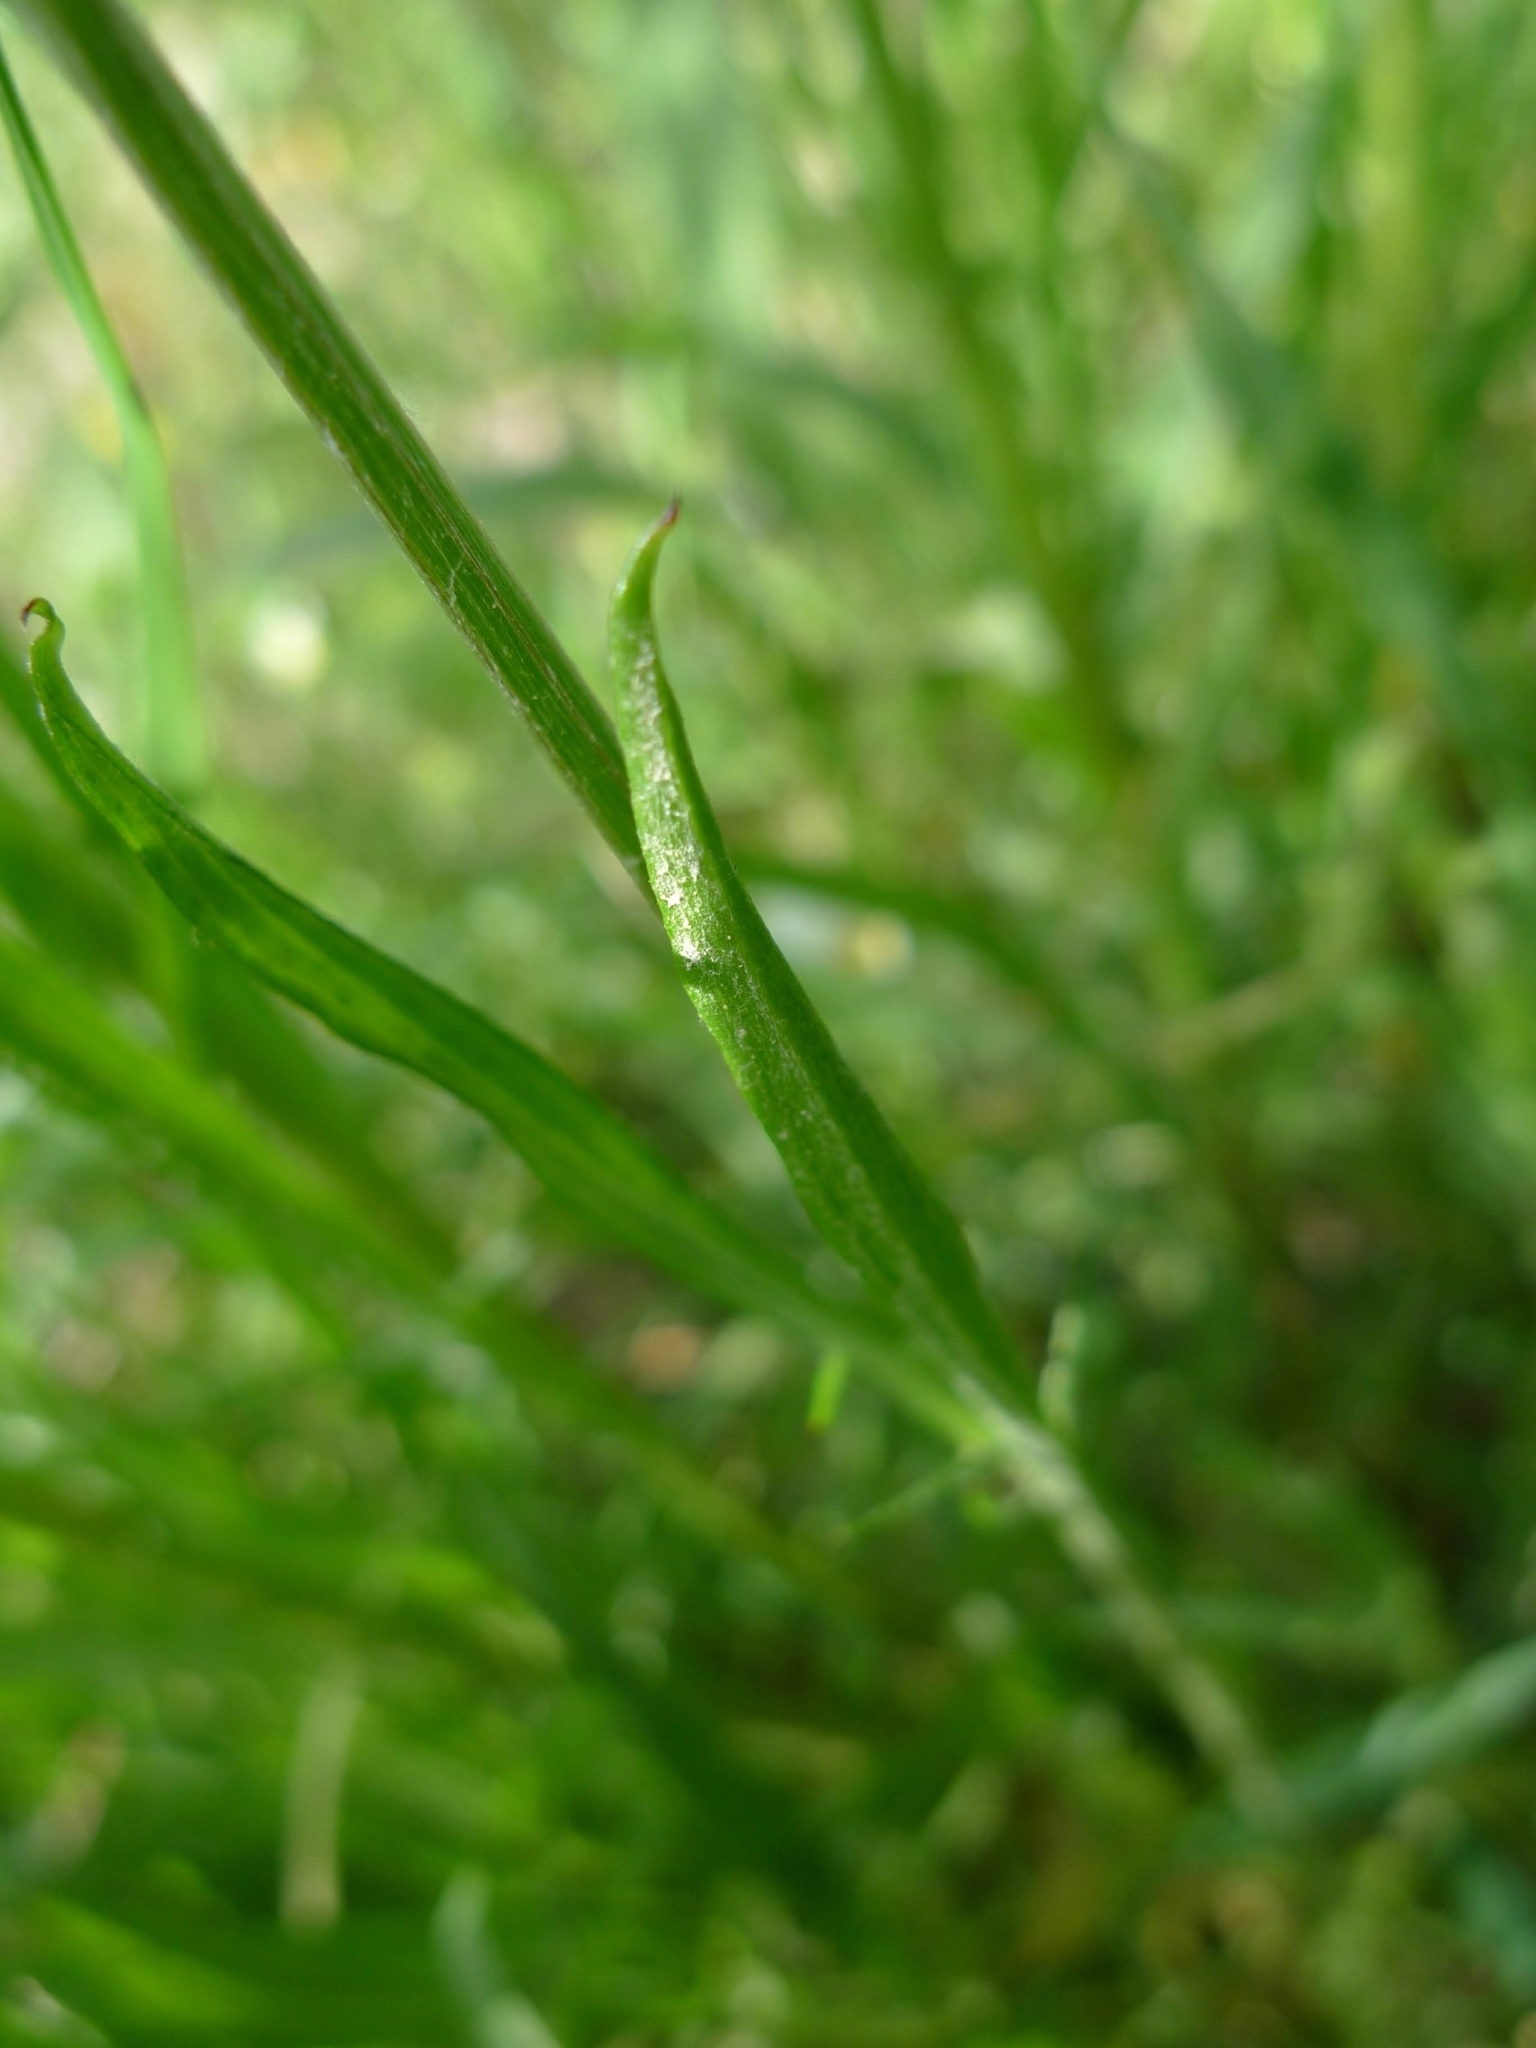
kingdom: Plantae
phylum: Tracheophyta
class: Magnoliopsida
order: Asterales
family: Asteraceae
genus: Centaurea
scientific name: Centaurea cyanus
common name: Cornflower
